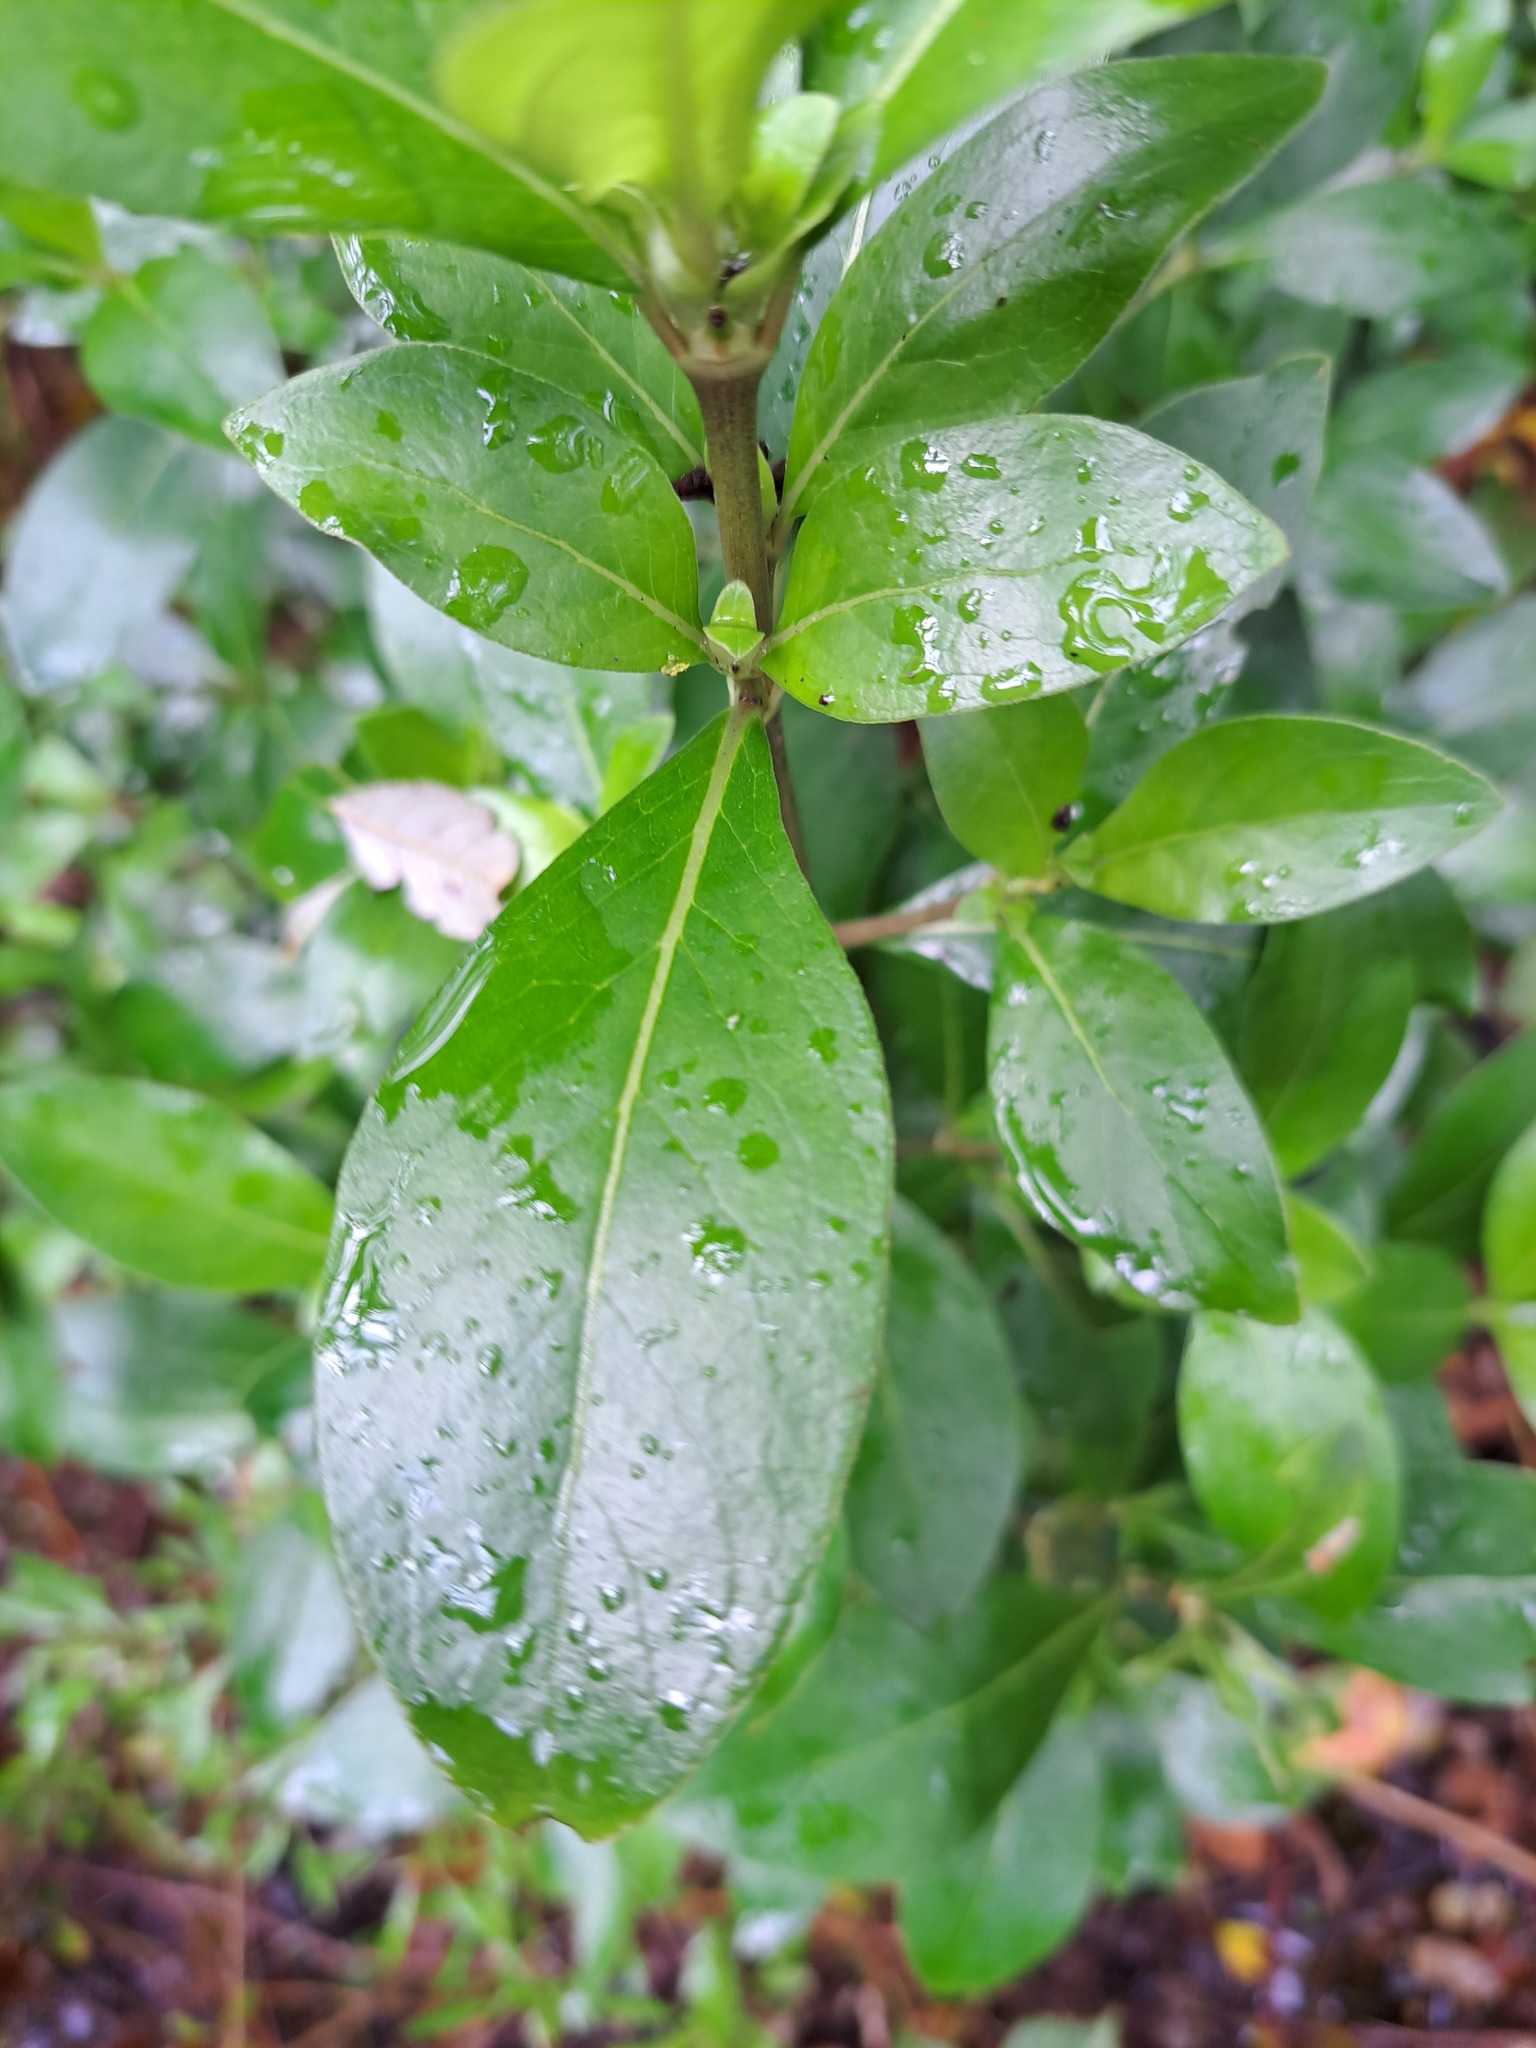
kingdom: Plantae
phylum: Tracheophyta
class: Magnoliopsida
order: Gentianales
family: Rubiaceae
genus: Coprosma
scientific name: Coprosma robusta
